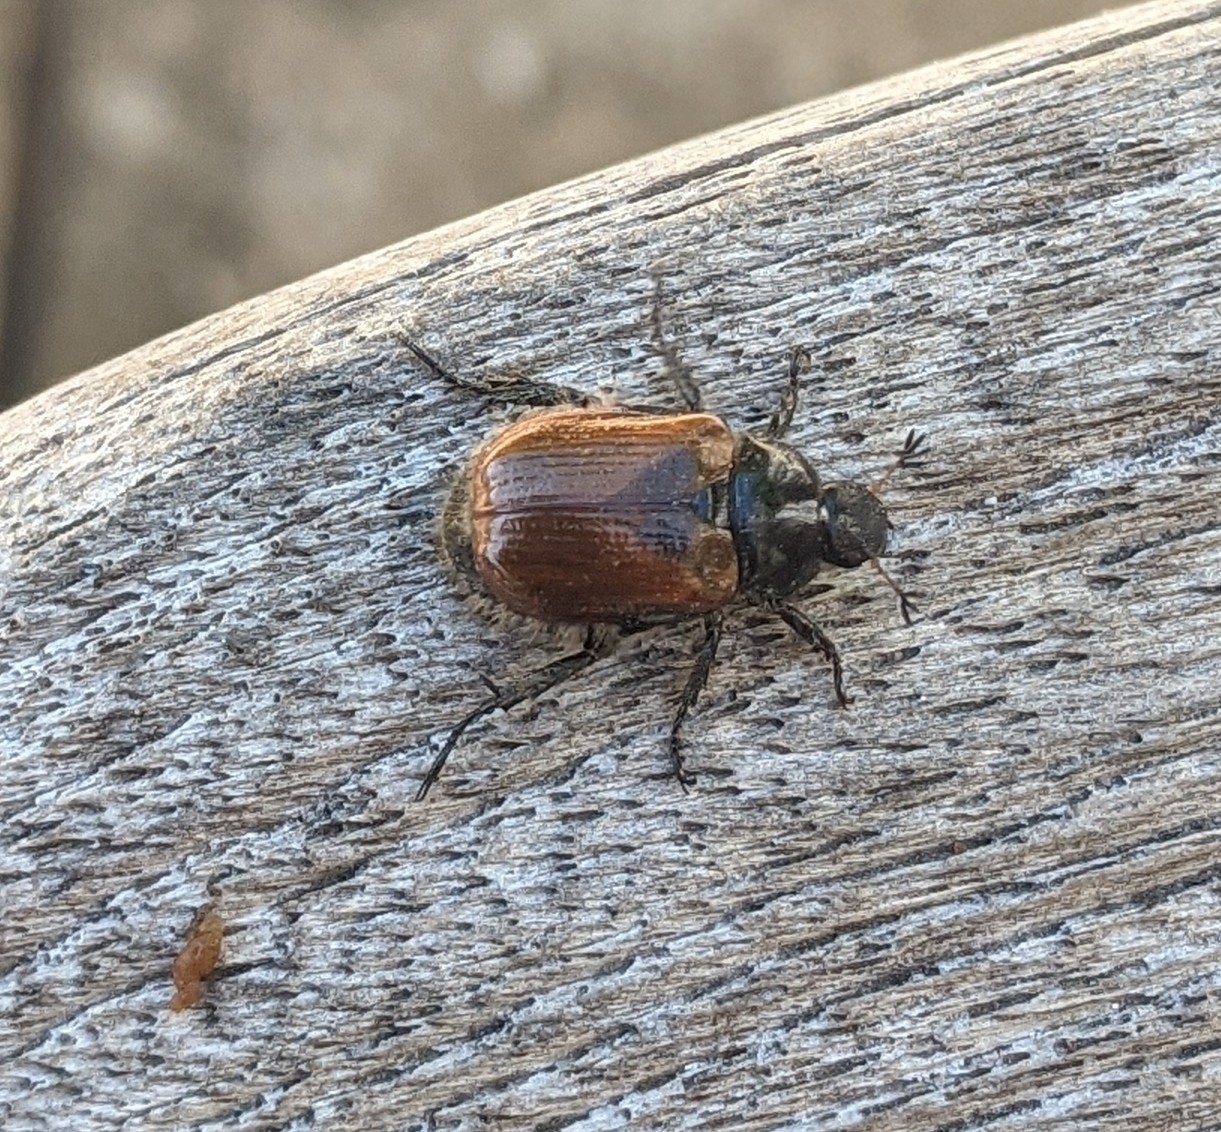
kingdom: Animalia
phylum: Arthropoda
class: Insecta
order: Coleoptera
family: Scarabaeidae
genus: Phyllopertha
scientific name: Phyllopertha horticola
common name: Garden chafer
